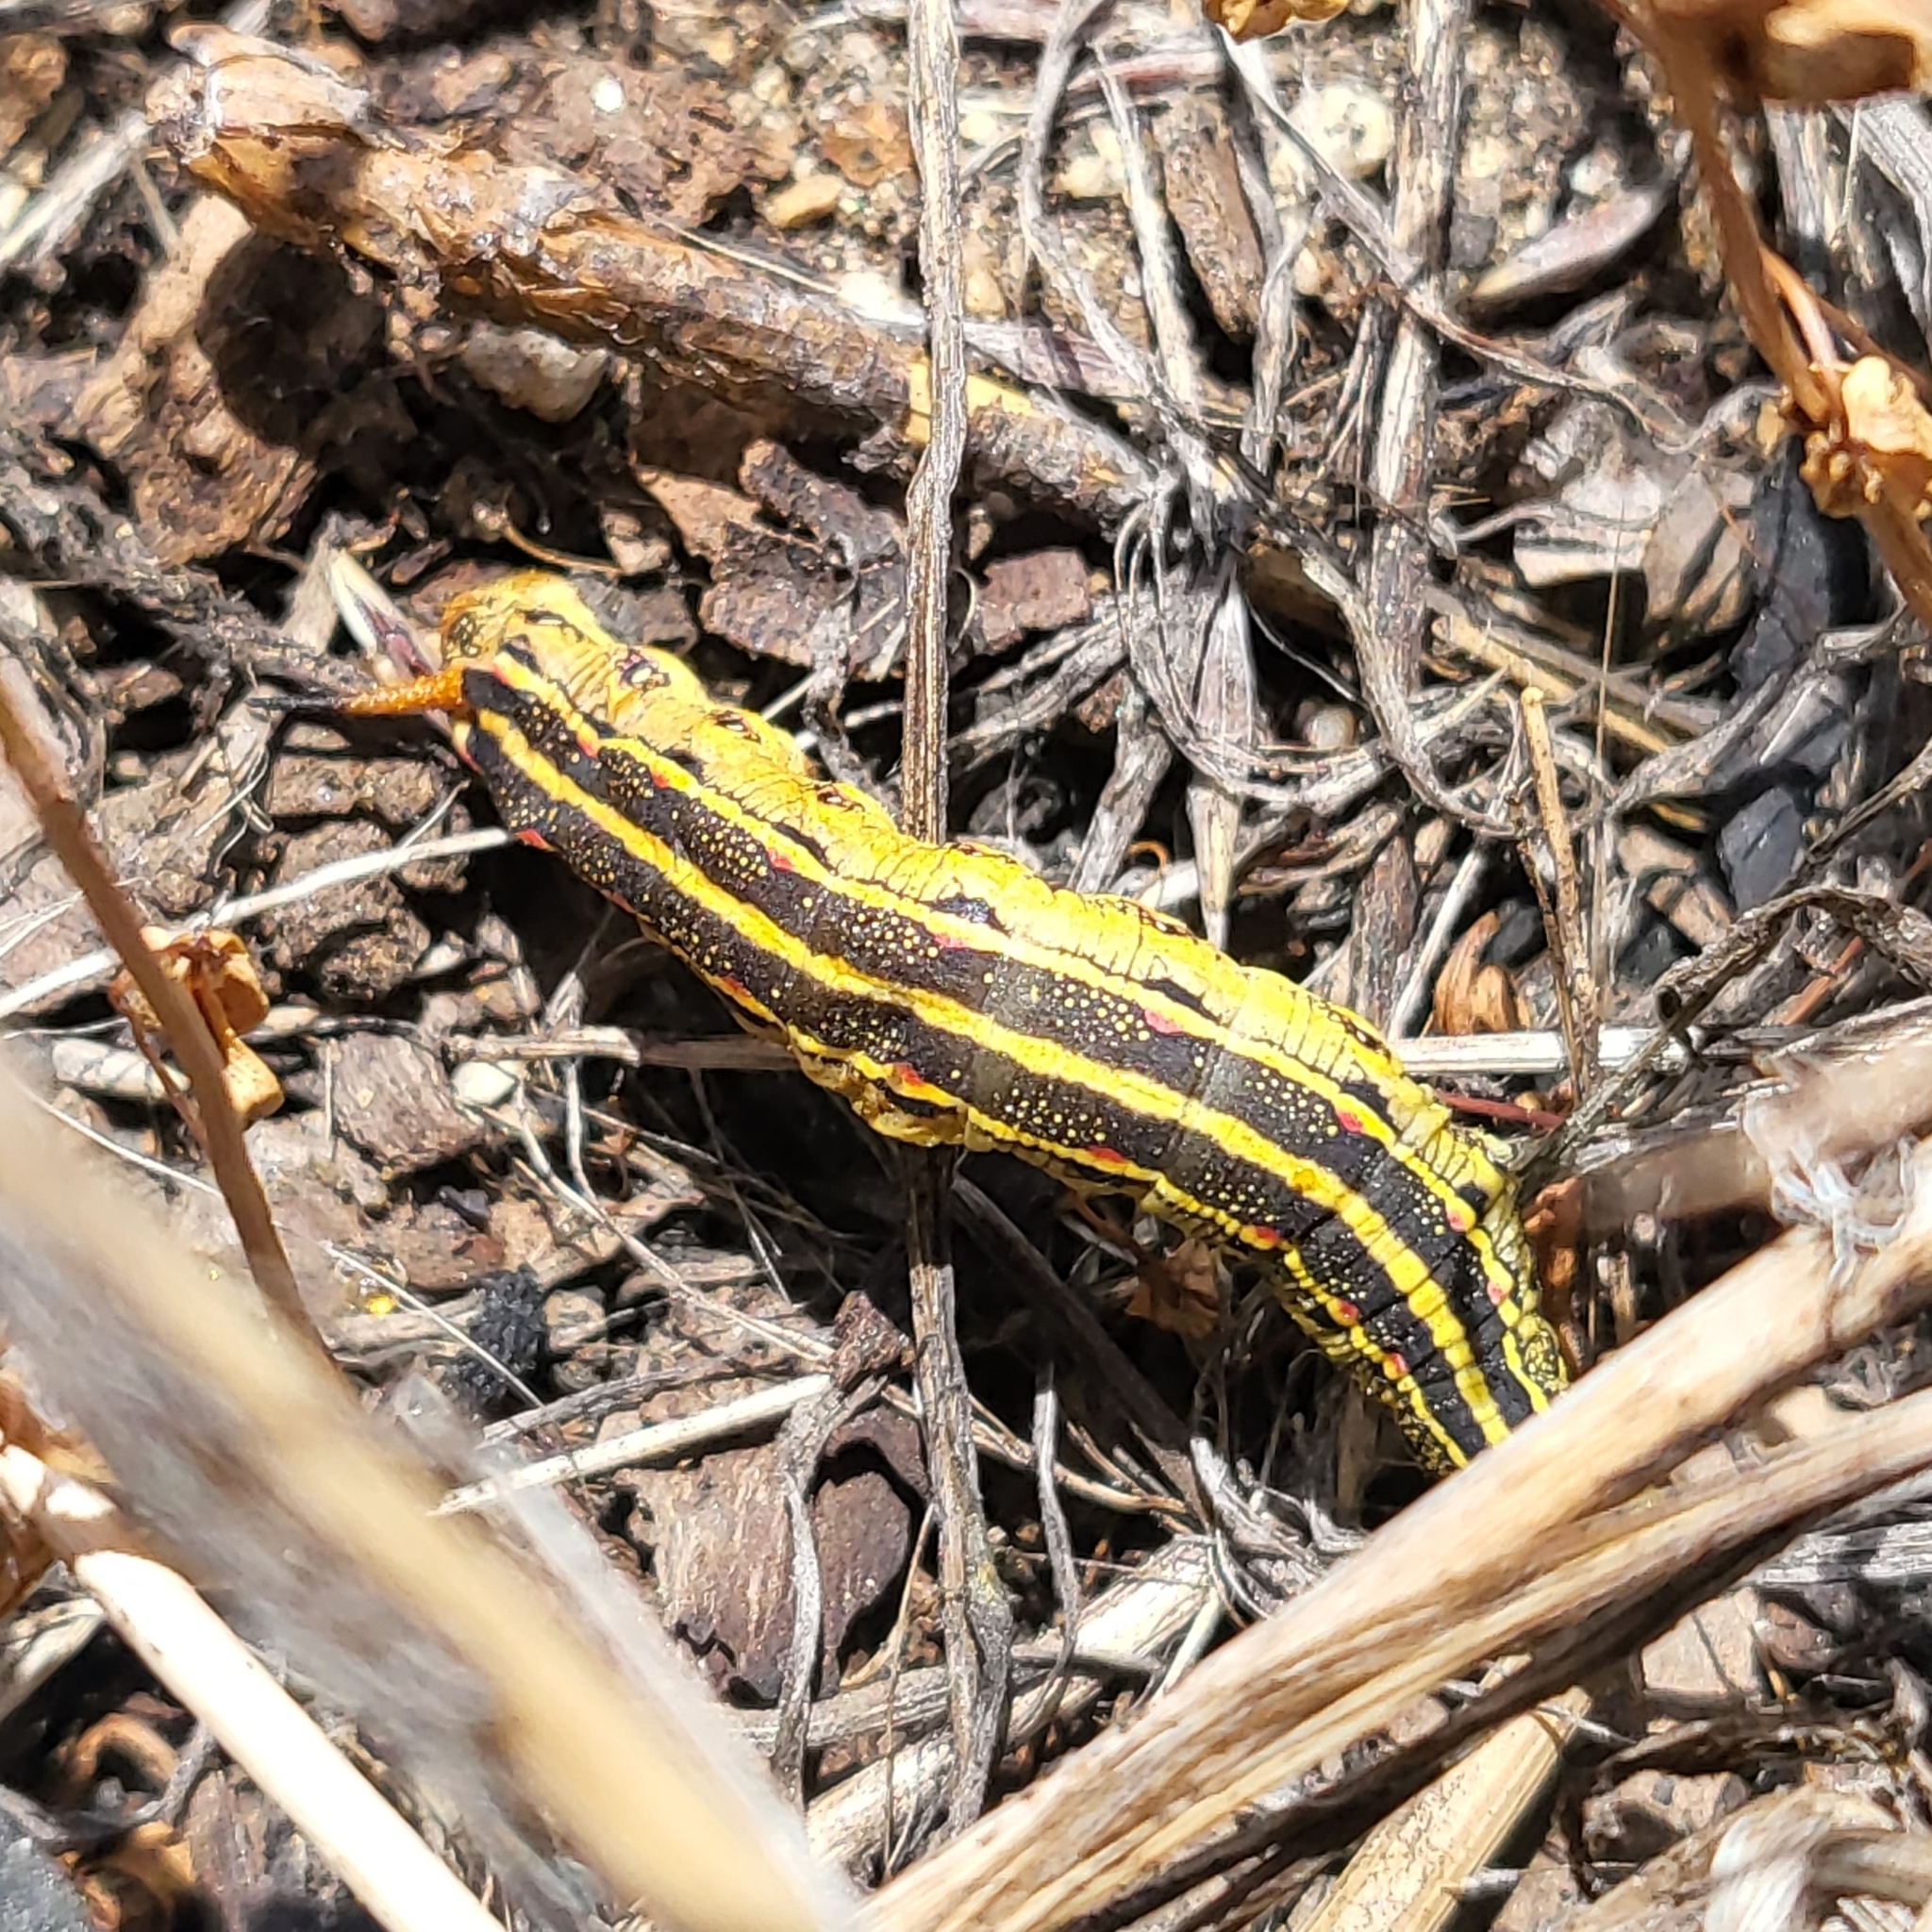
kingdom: Animalia
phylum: Arthropoda
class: Insecta
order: Lepidoptera
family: Sphingidae
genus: Hyles
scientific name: Hyles lineata
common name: White-lined sphinx
